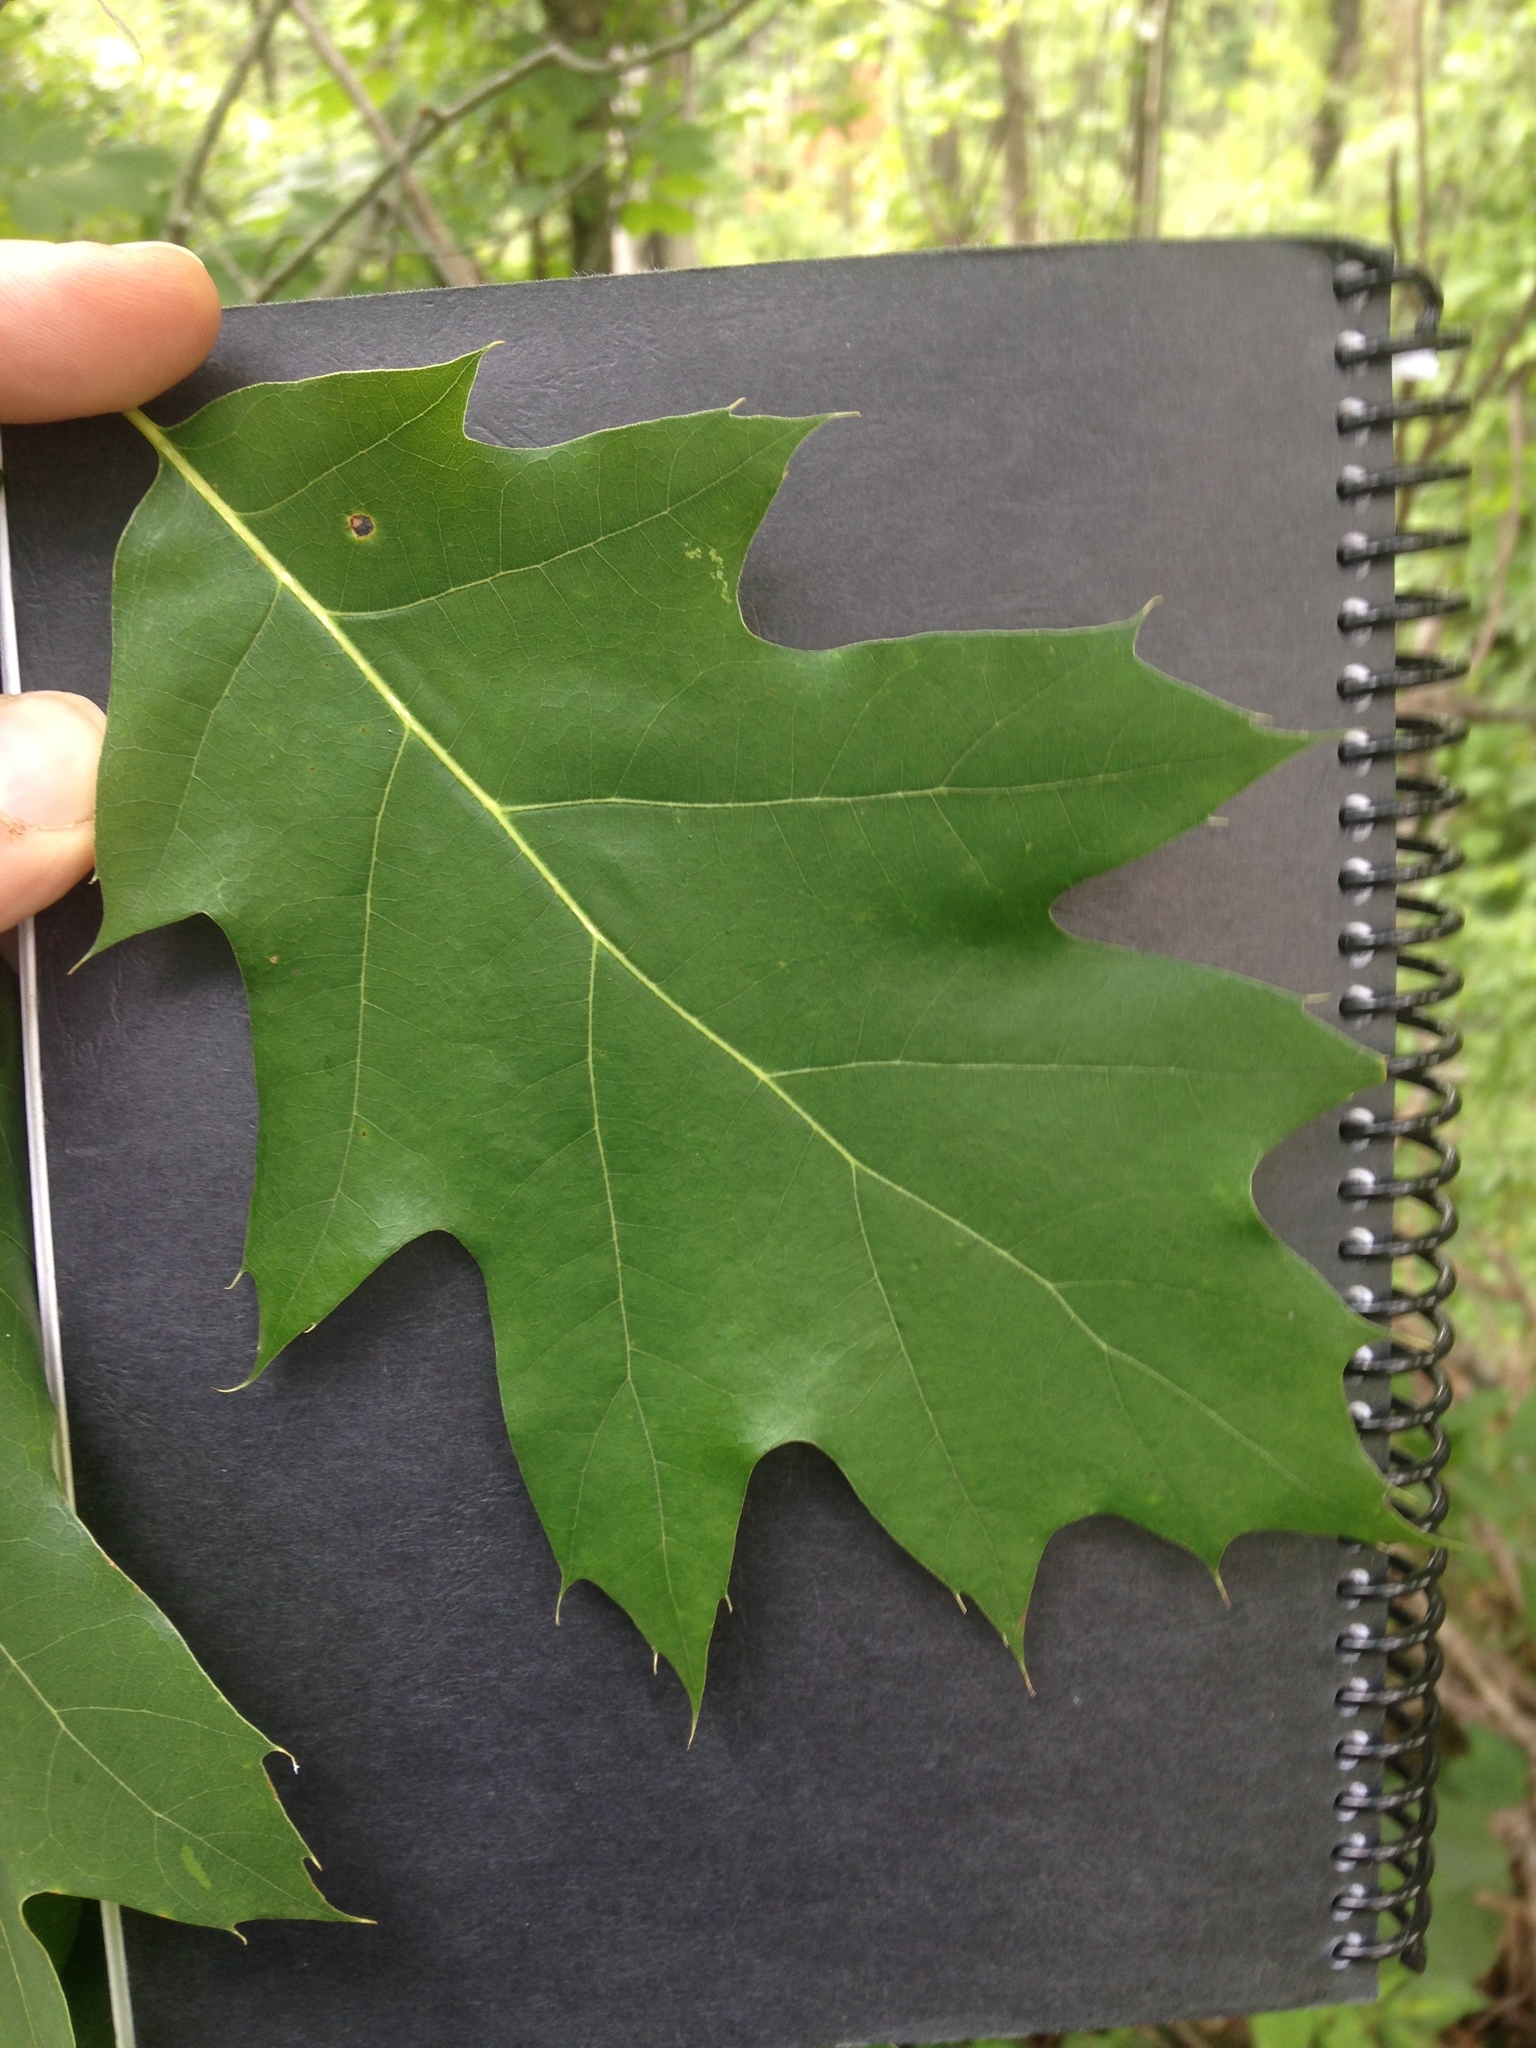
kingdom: Plantae
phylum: Tracheophyta
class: Magnoliopsida
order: Fagales
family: Fagaceae
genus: Quercus
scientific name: Quercus rubra
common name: Red oak
